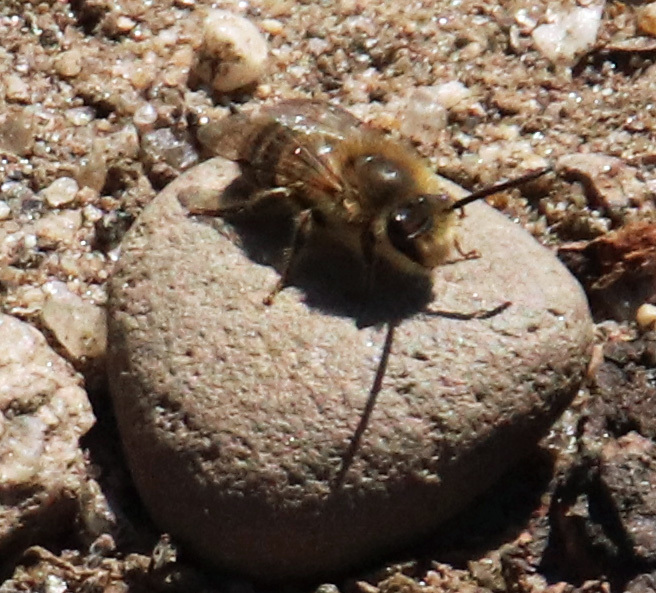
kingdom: Animalia
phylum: Arthropoda
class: Insecta
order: Hymenoptera
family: Colletidae
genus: Colletes
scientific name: Colletes inaequalis
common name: Unequal cellophane bee
